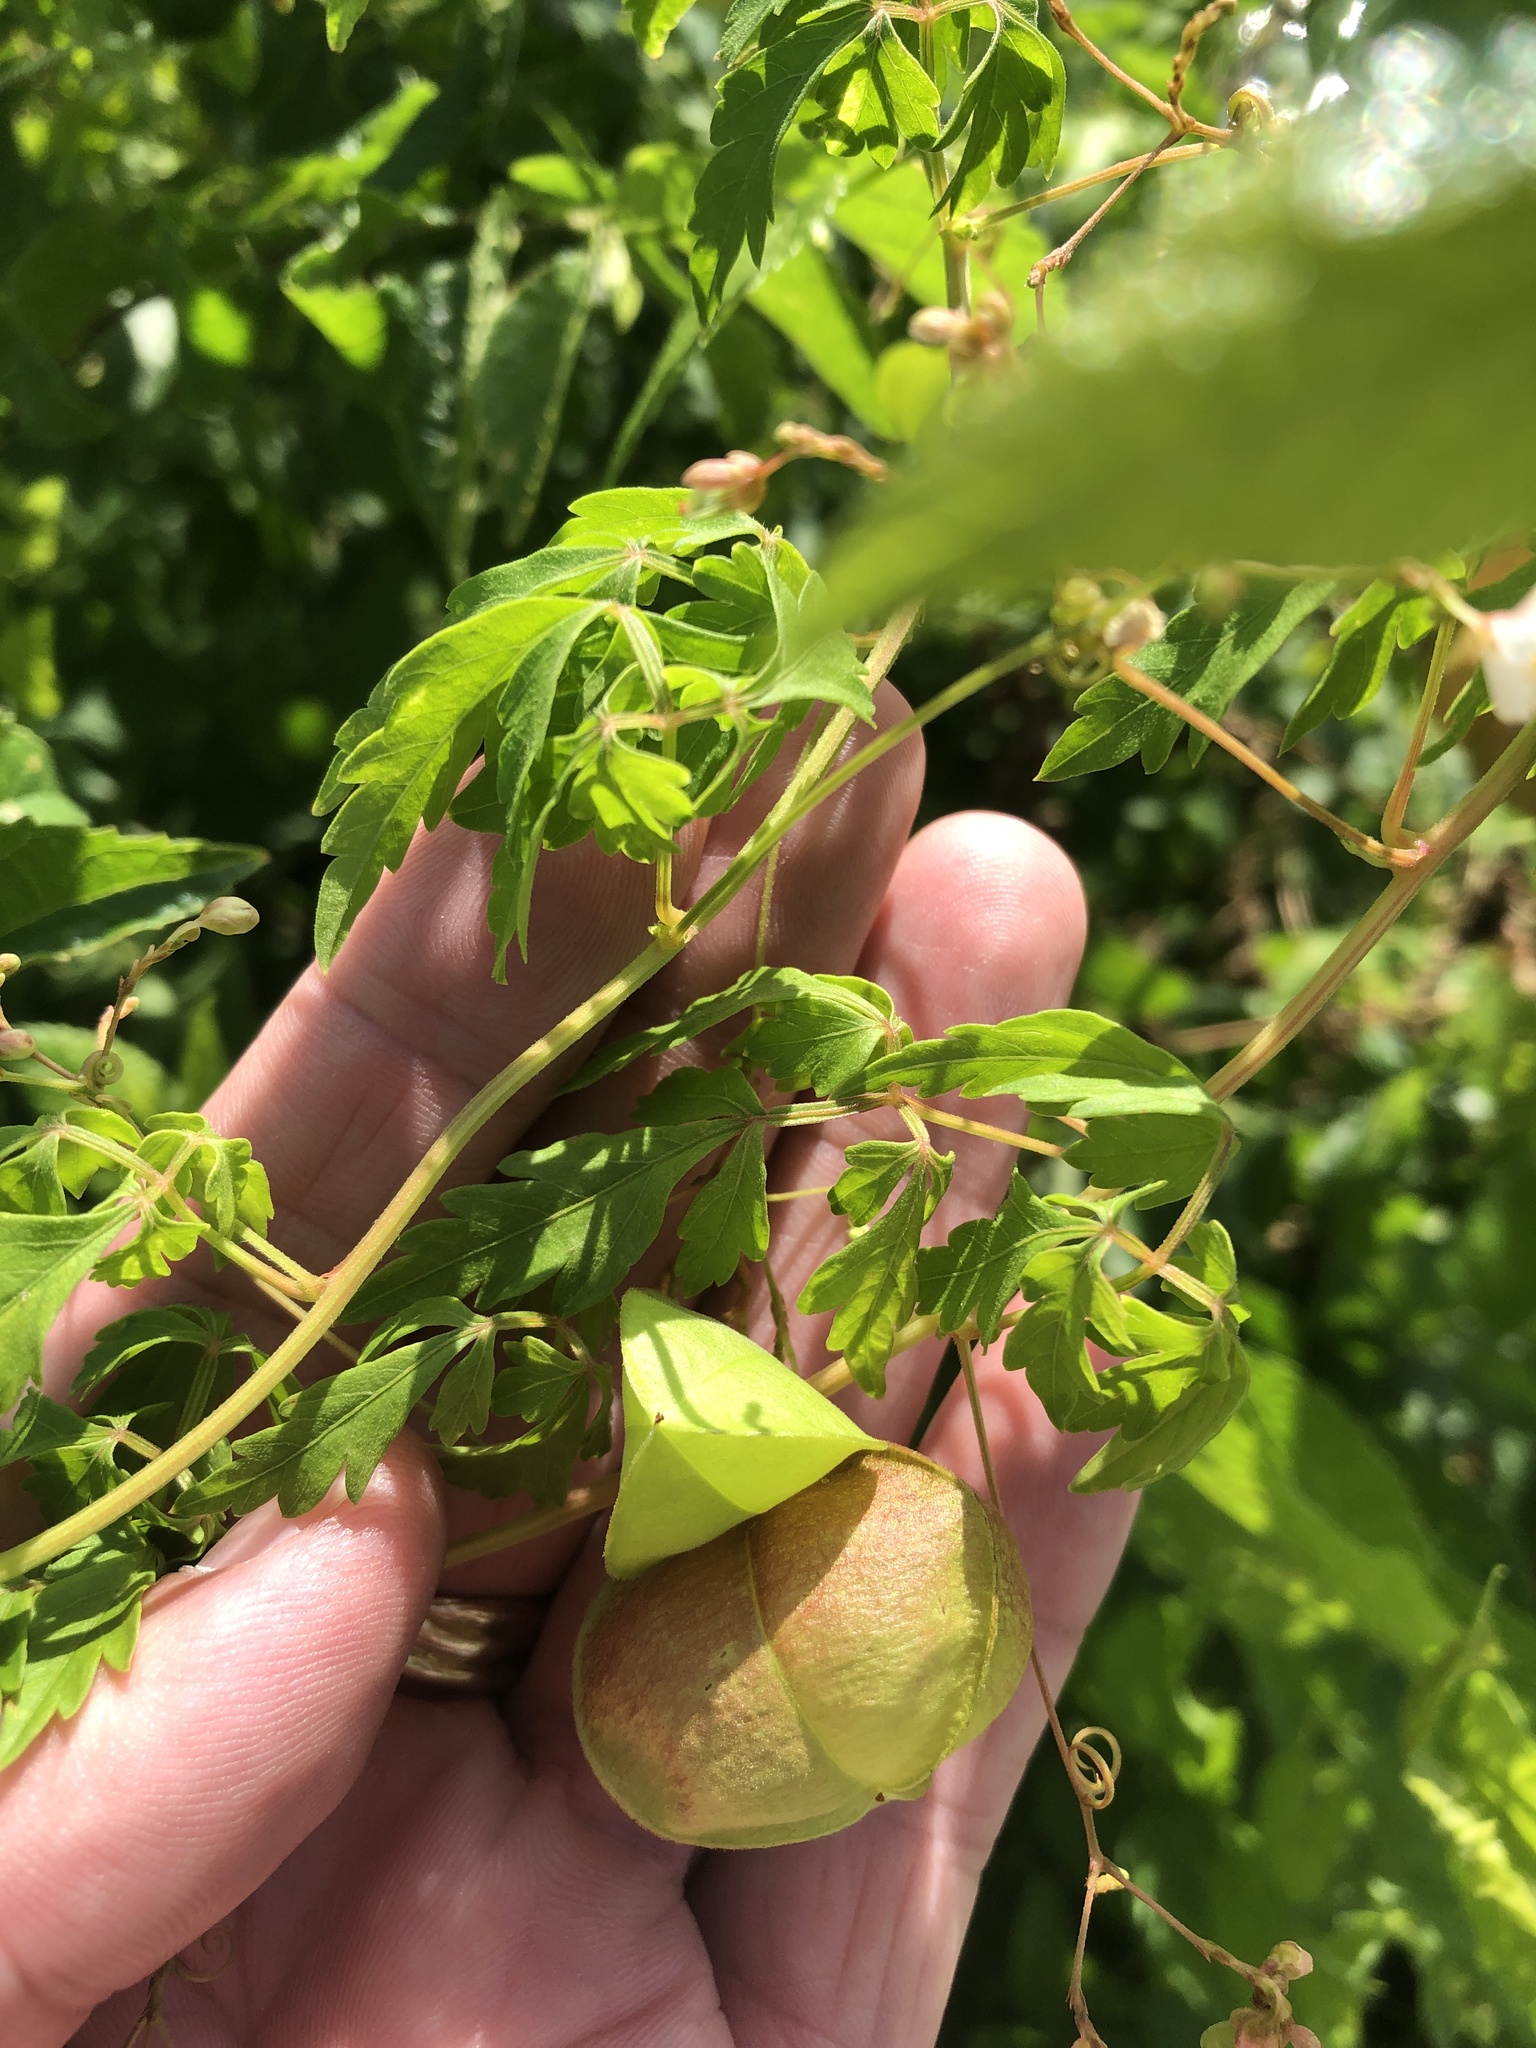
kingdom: Plantae
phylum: Tracheophyta
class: Magnoliopsida
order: Sapindales
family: Sapindaceae
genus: Cardiospermum
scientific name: Cardiospermum halicacabum
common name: Balloon vine
